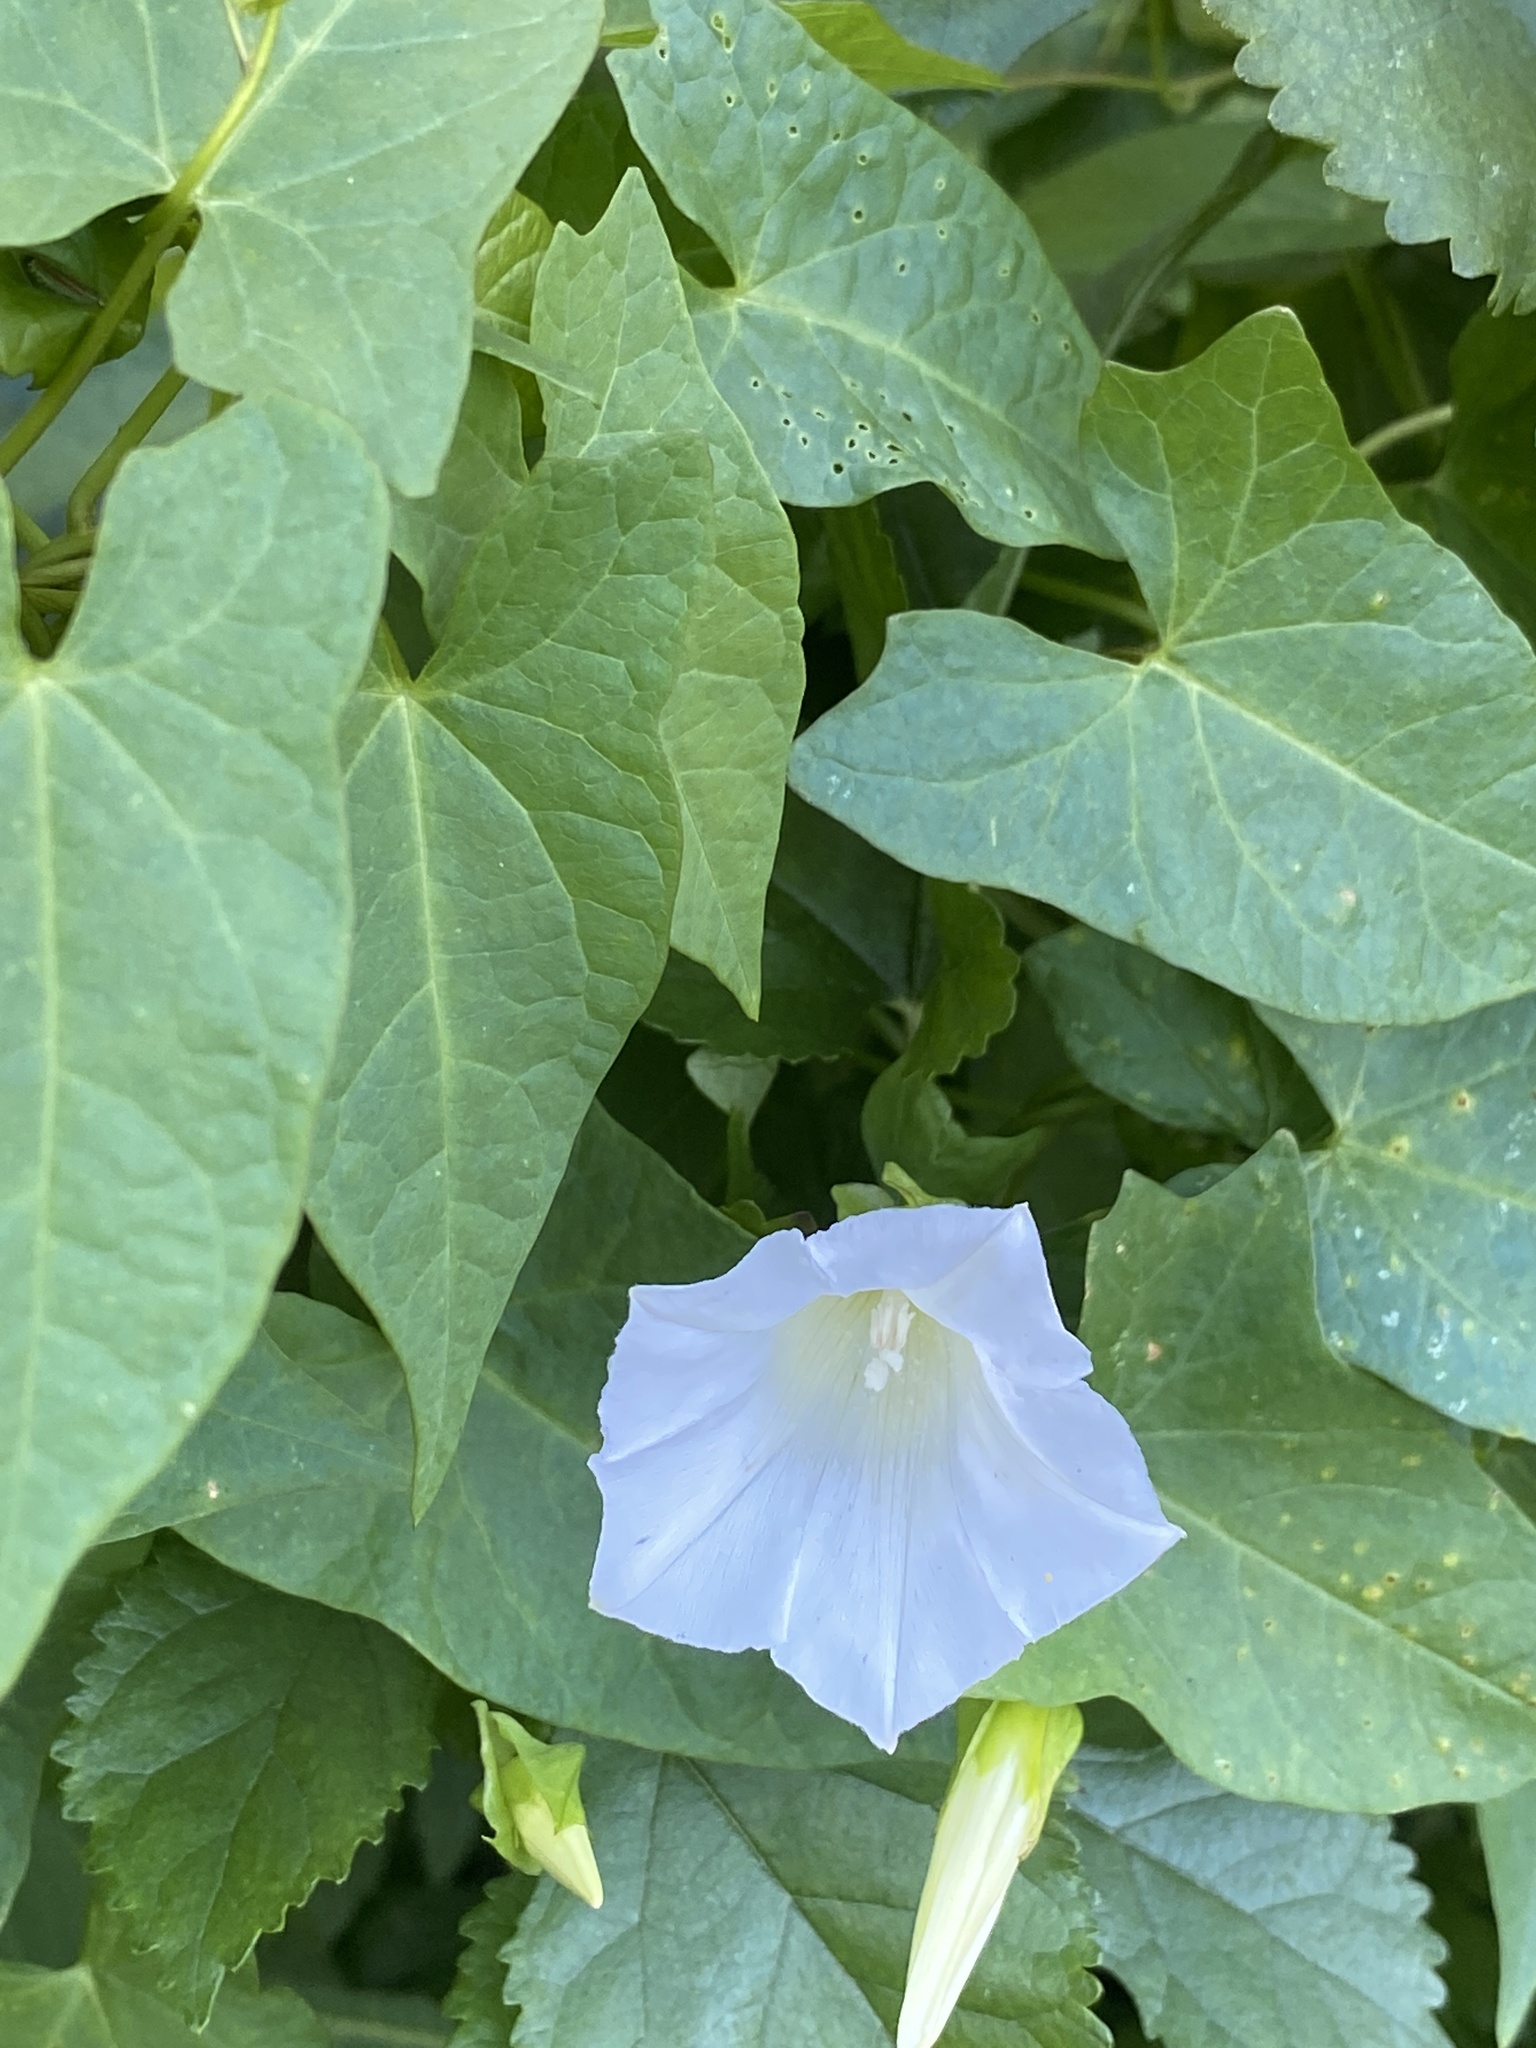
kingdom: Plantae
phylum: Tracheophyta
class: Magnoliopsida
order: Solanales
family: Convolvulaceae
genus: Calystegia
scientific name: Calystegia sepium
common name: Hedge bindweed
